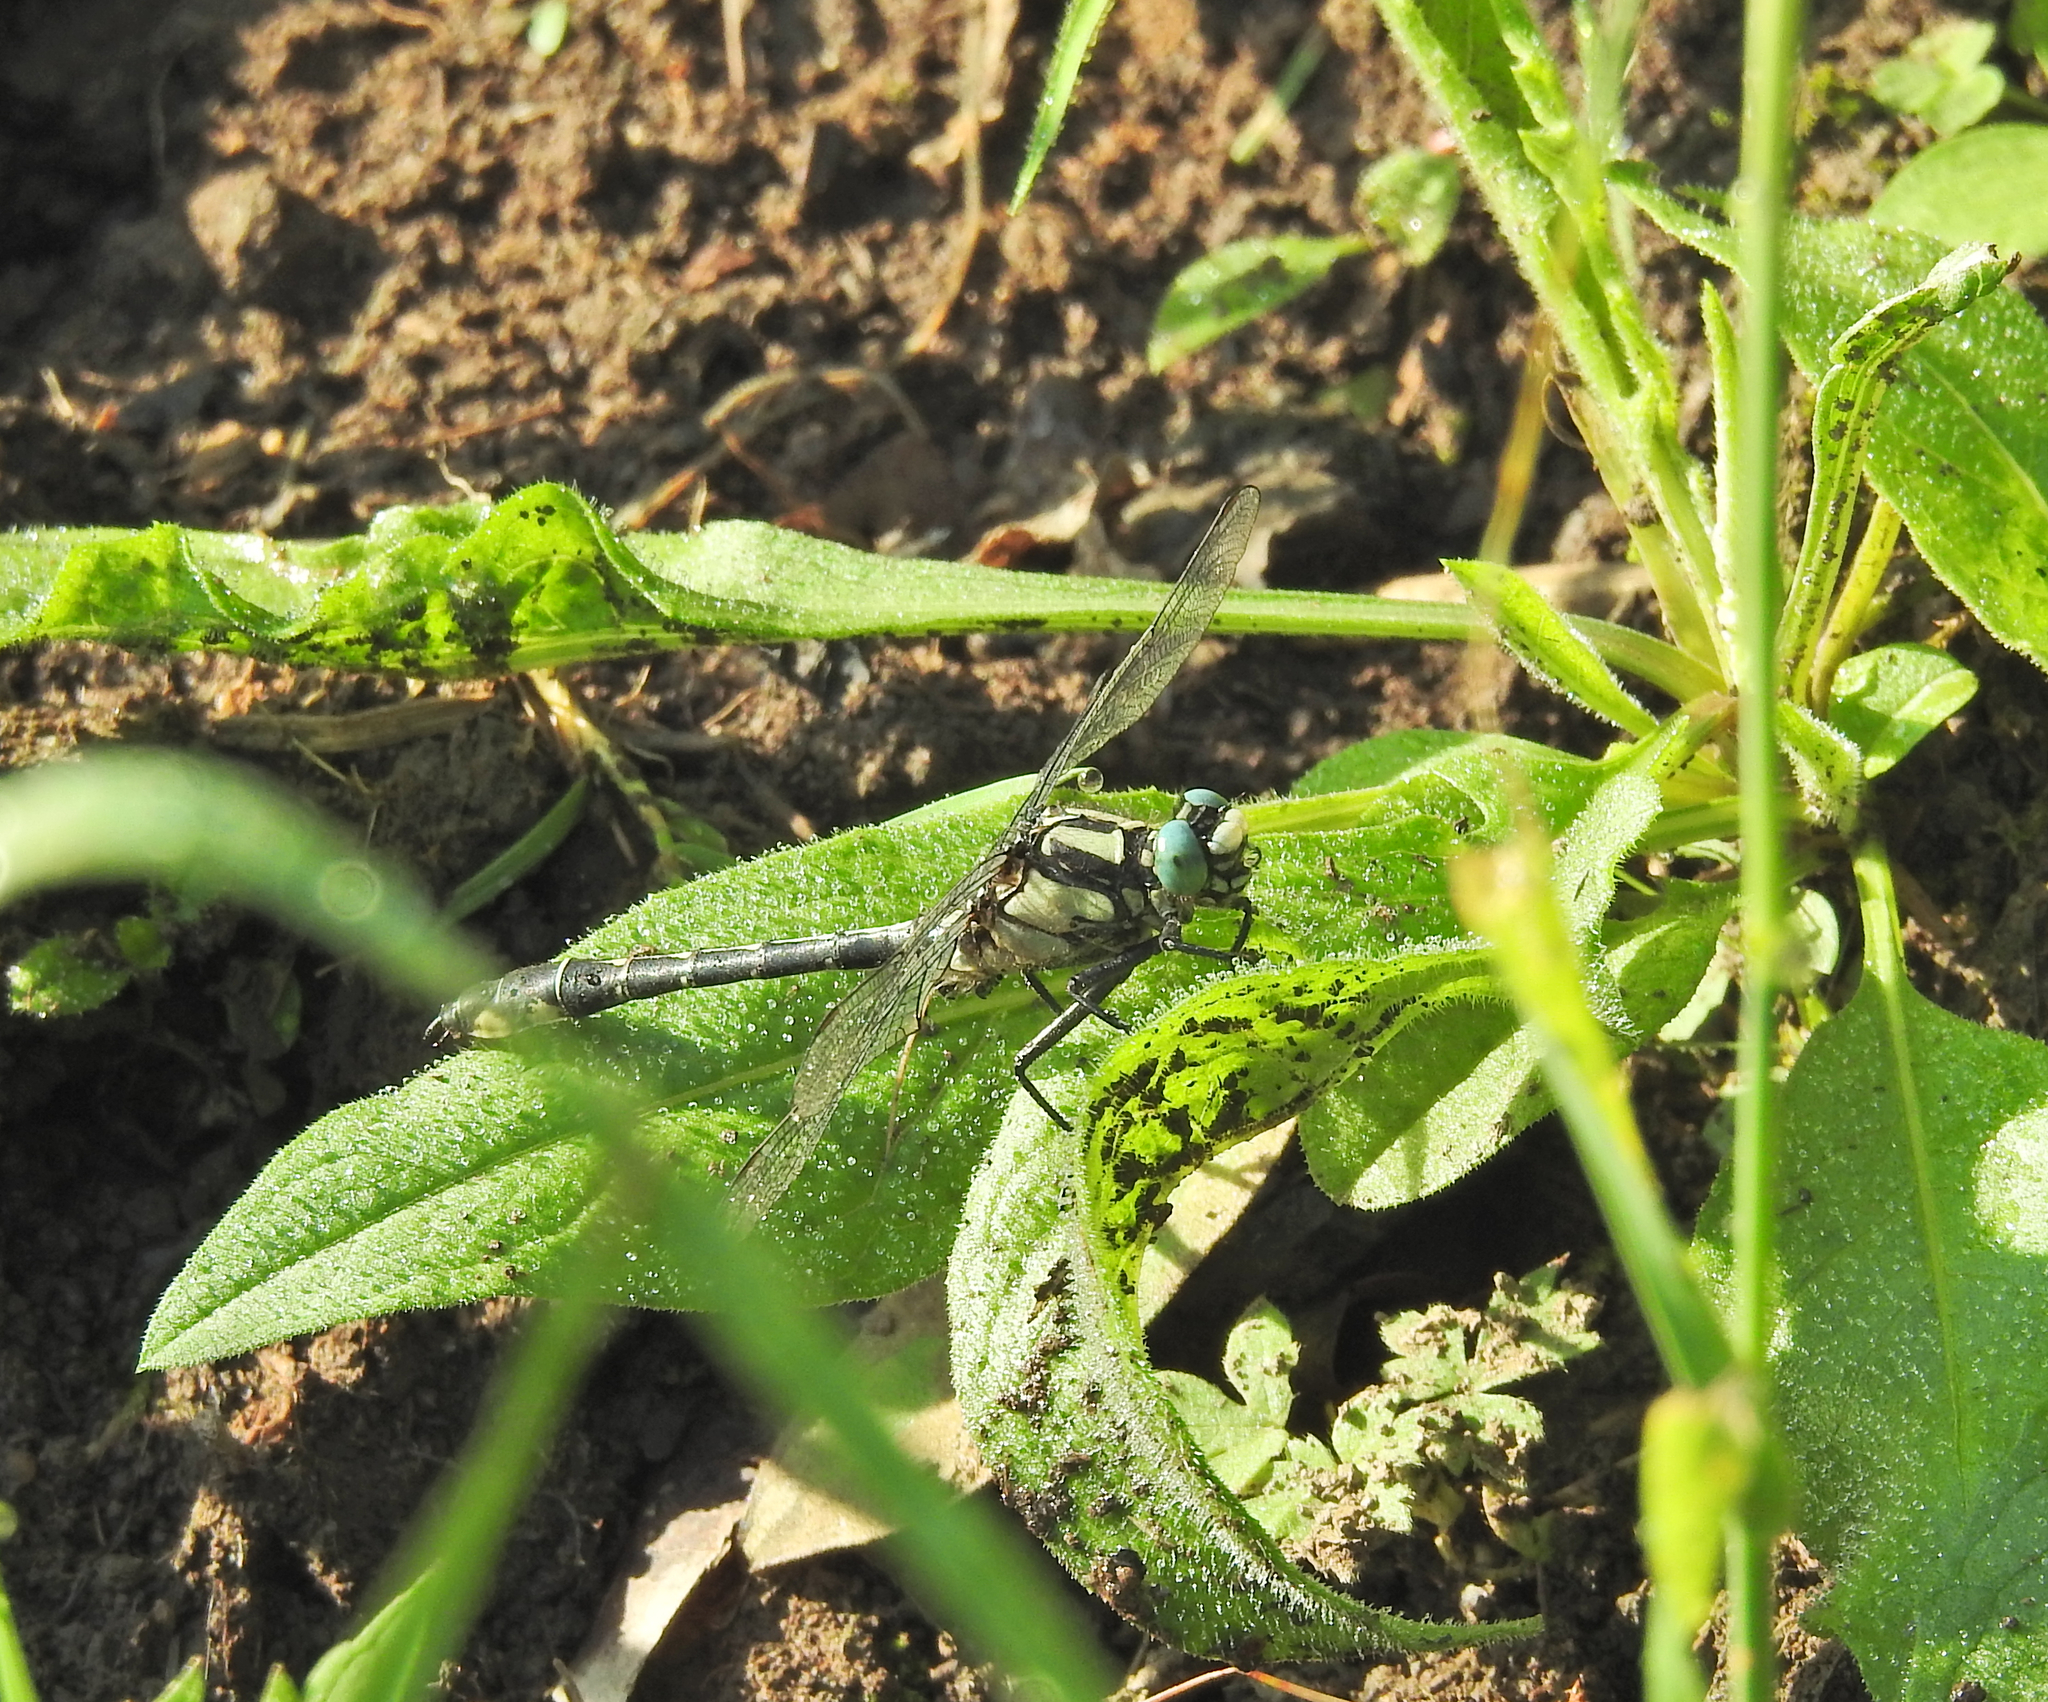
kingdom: Animalia
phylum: Arthropoda
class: Insecta
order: Odonata
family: Gomphidae
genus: Gomphus
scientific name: Gomphus vulgatissimus
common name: Club-tailed dragonfly
